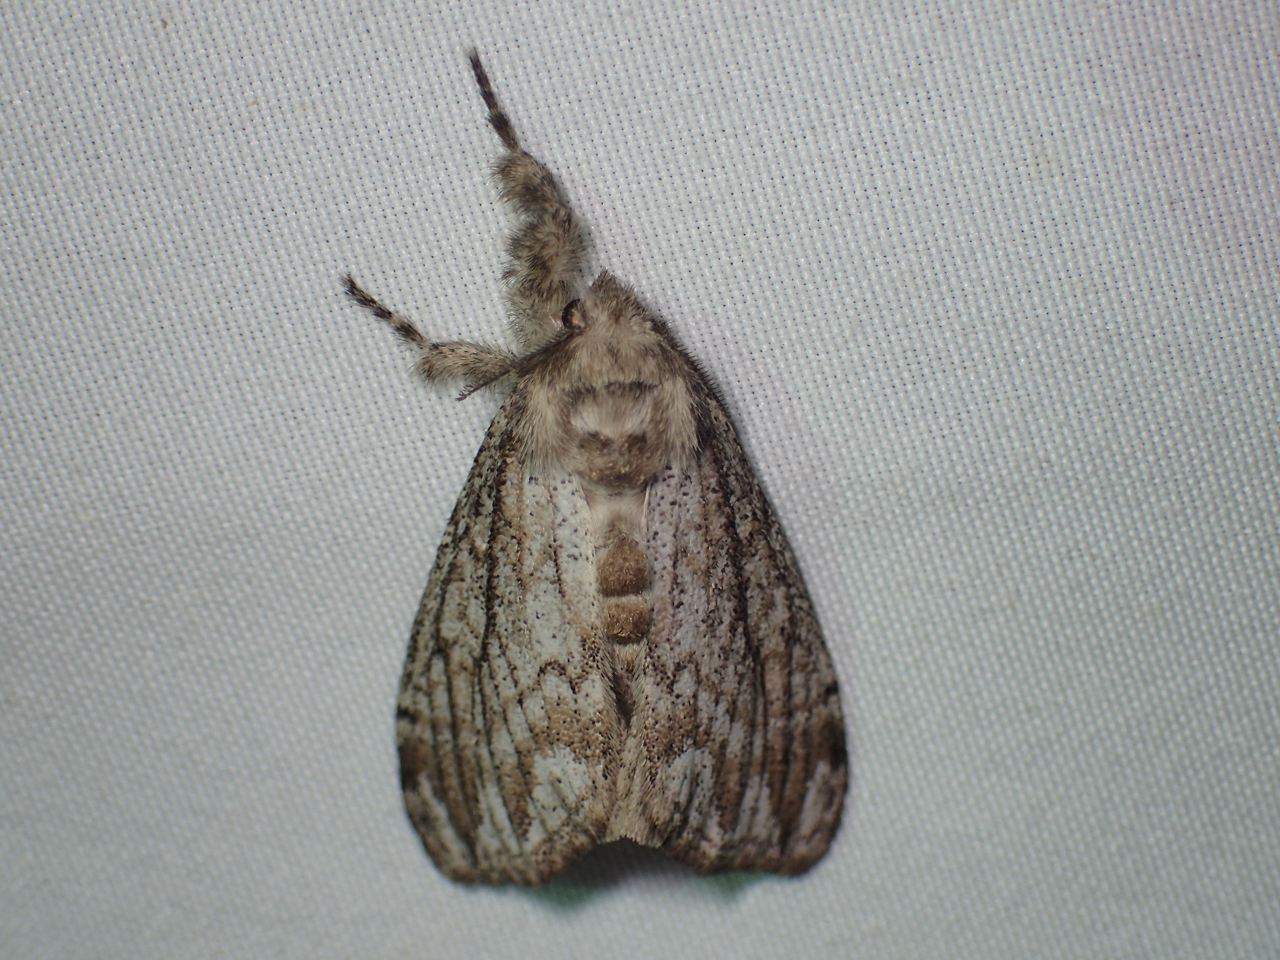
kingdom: Animalia
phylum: Arthropoda
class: Insecta
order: Lepidoptera
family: Erebidae
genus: Dasychira
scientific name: Dasychira atrivenosa
